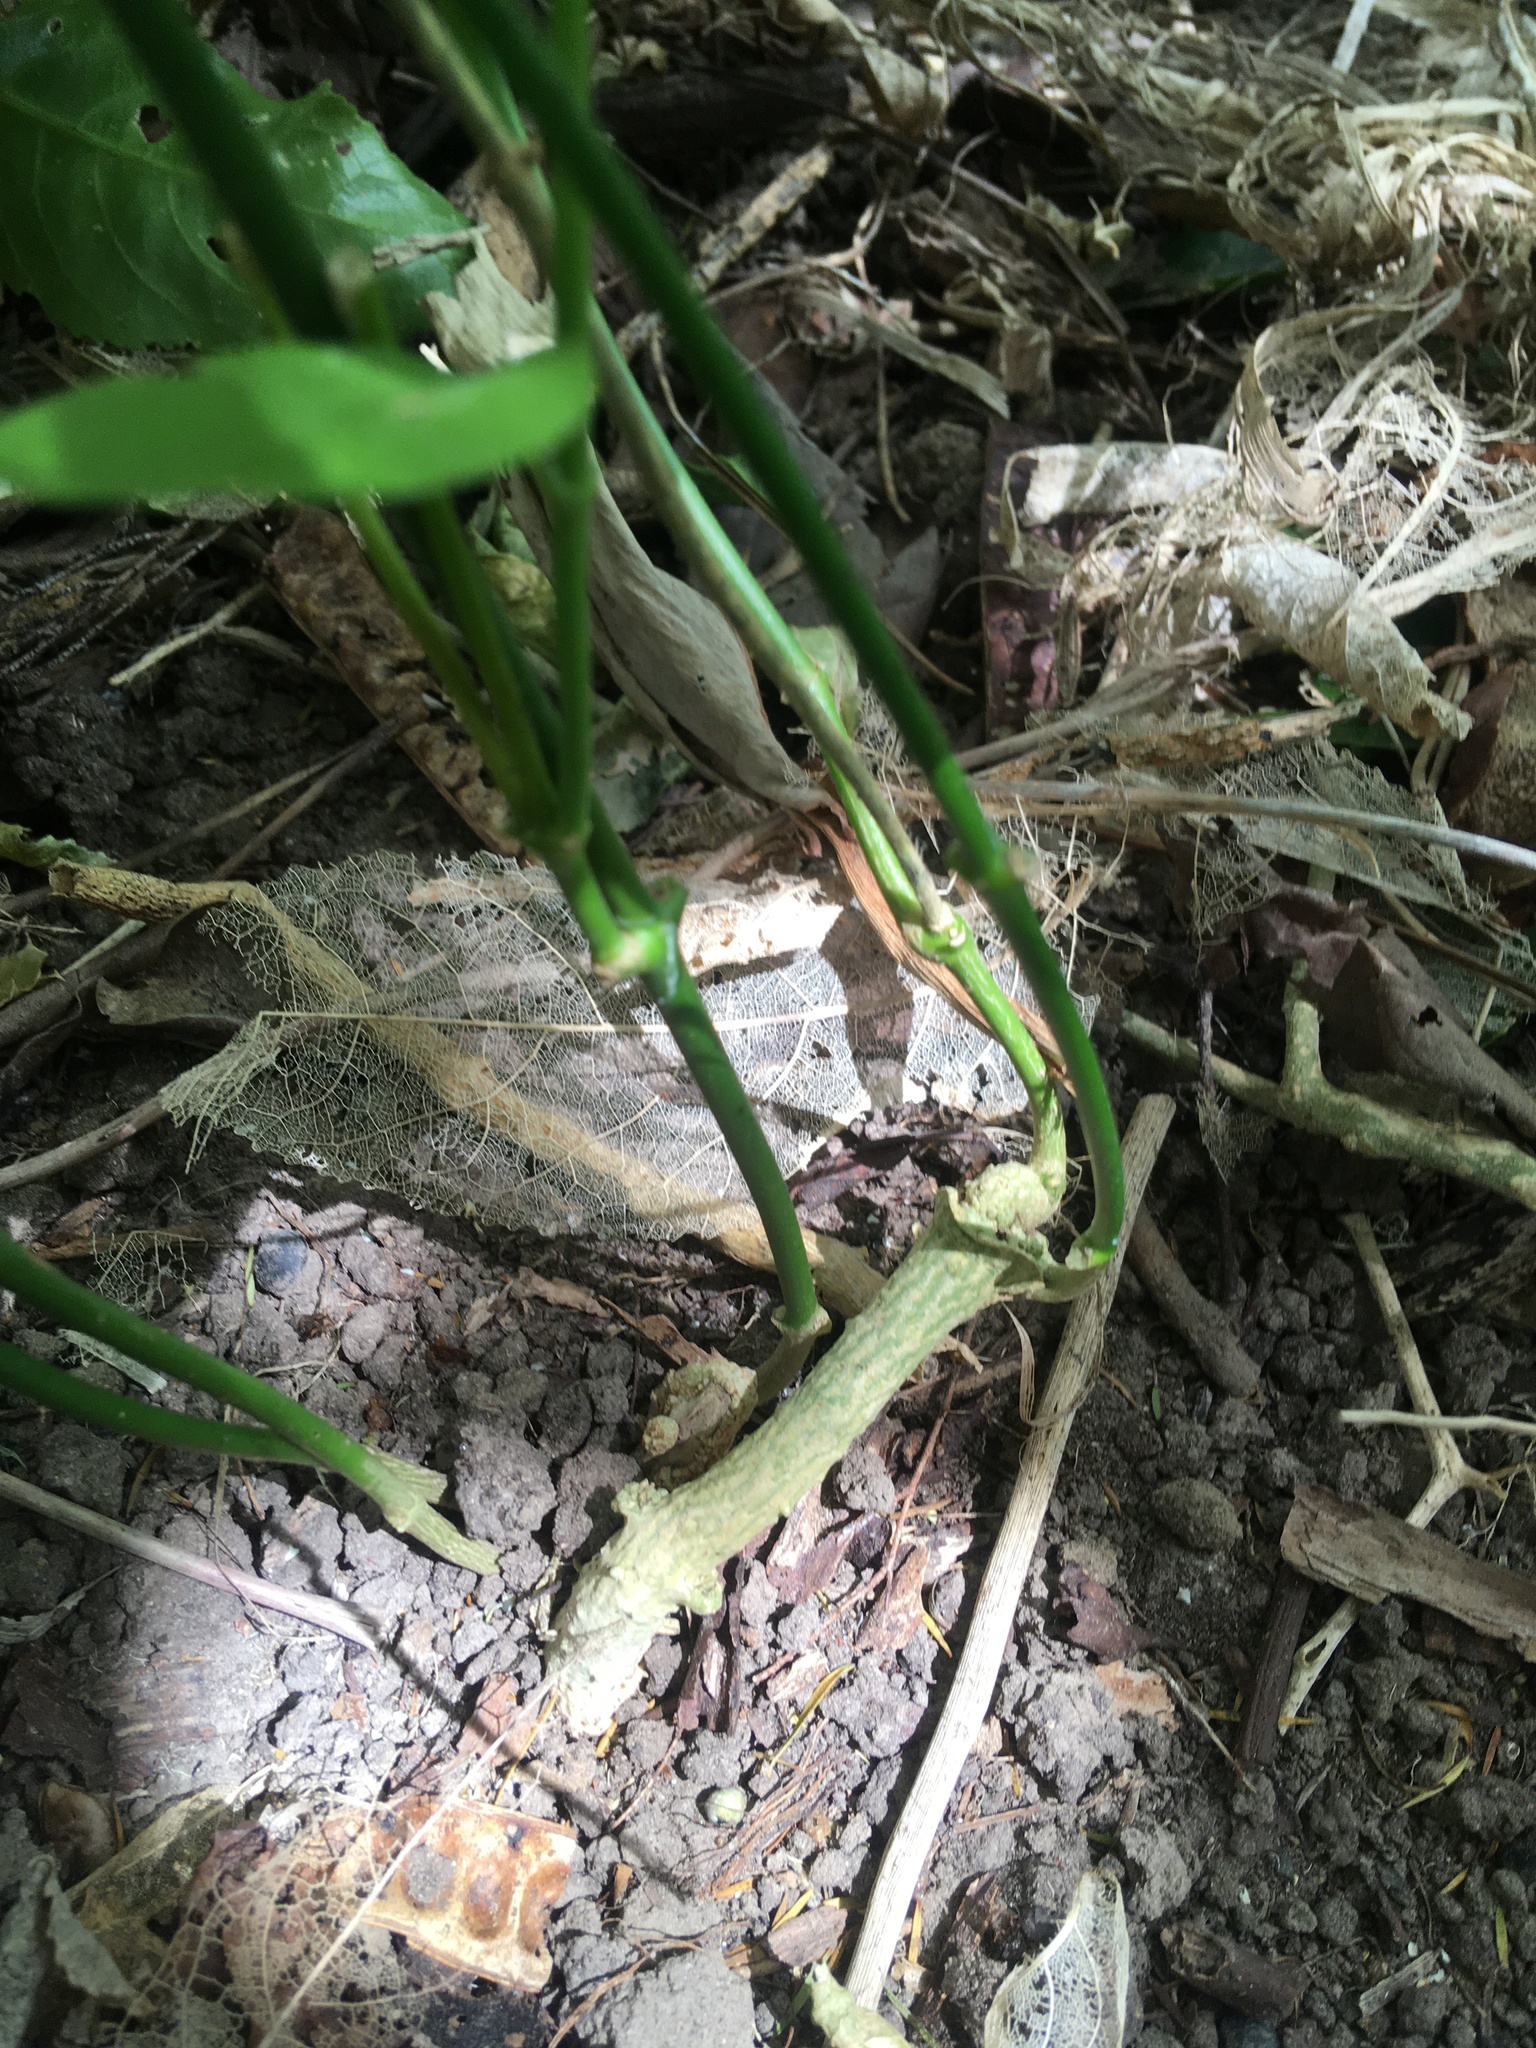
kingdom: Plantae
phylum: Tracheophyta
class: Magnoliopsida
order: Gentianales
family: Apocynaceae
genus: Araujia
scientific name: Araujia sericifera
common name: White bladderflower
